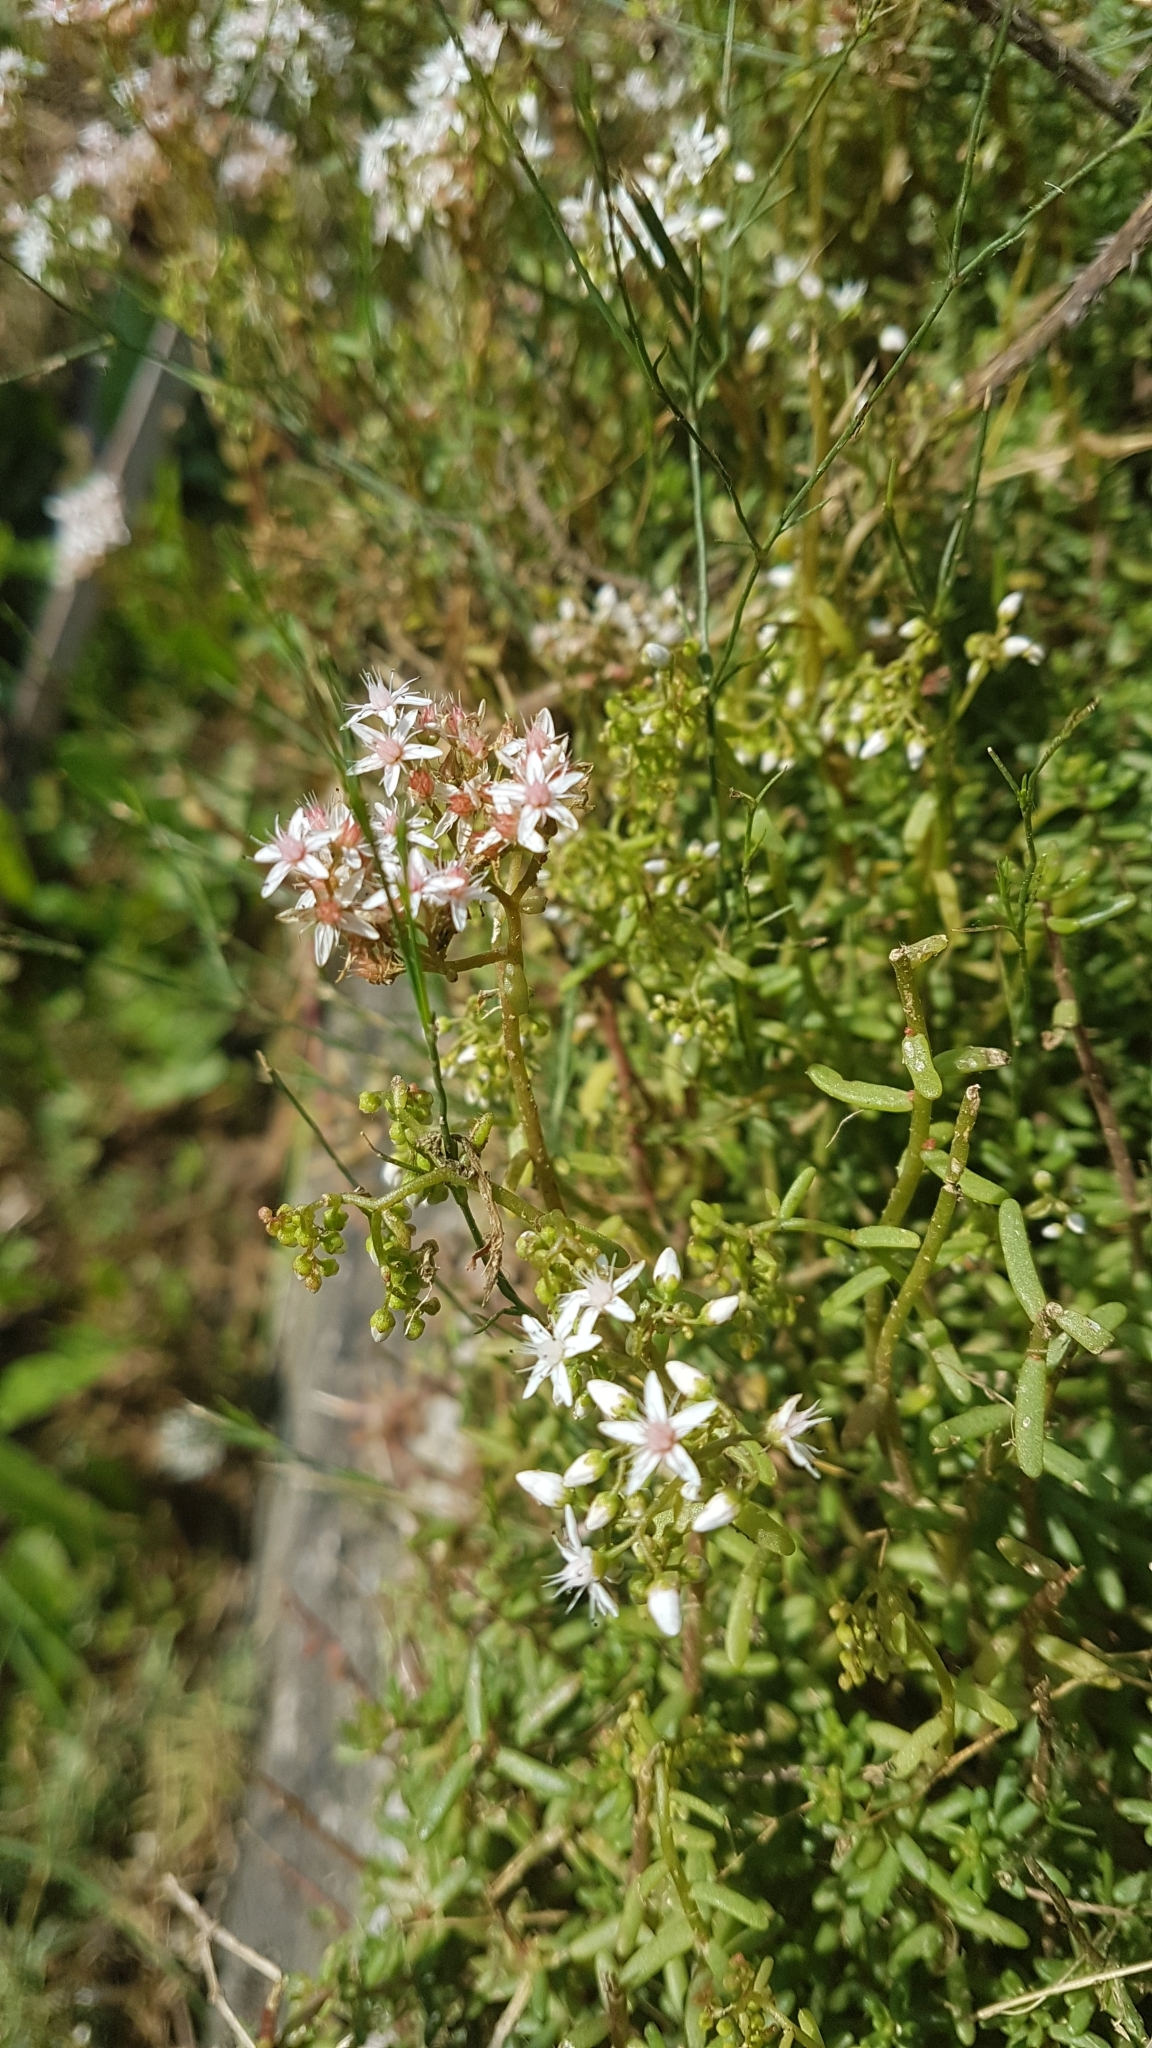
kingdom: Plantae
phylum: Tracheophyta
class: Magnoliopsida
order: Saxifragales
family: Crassulaceae
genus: Sedum
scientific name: Sedum album
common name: White stonecrop
